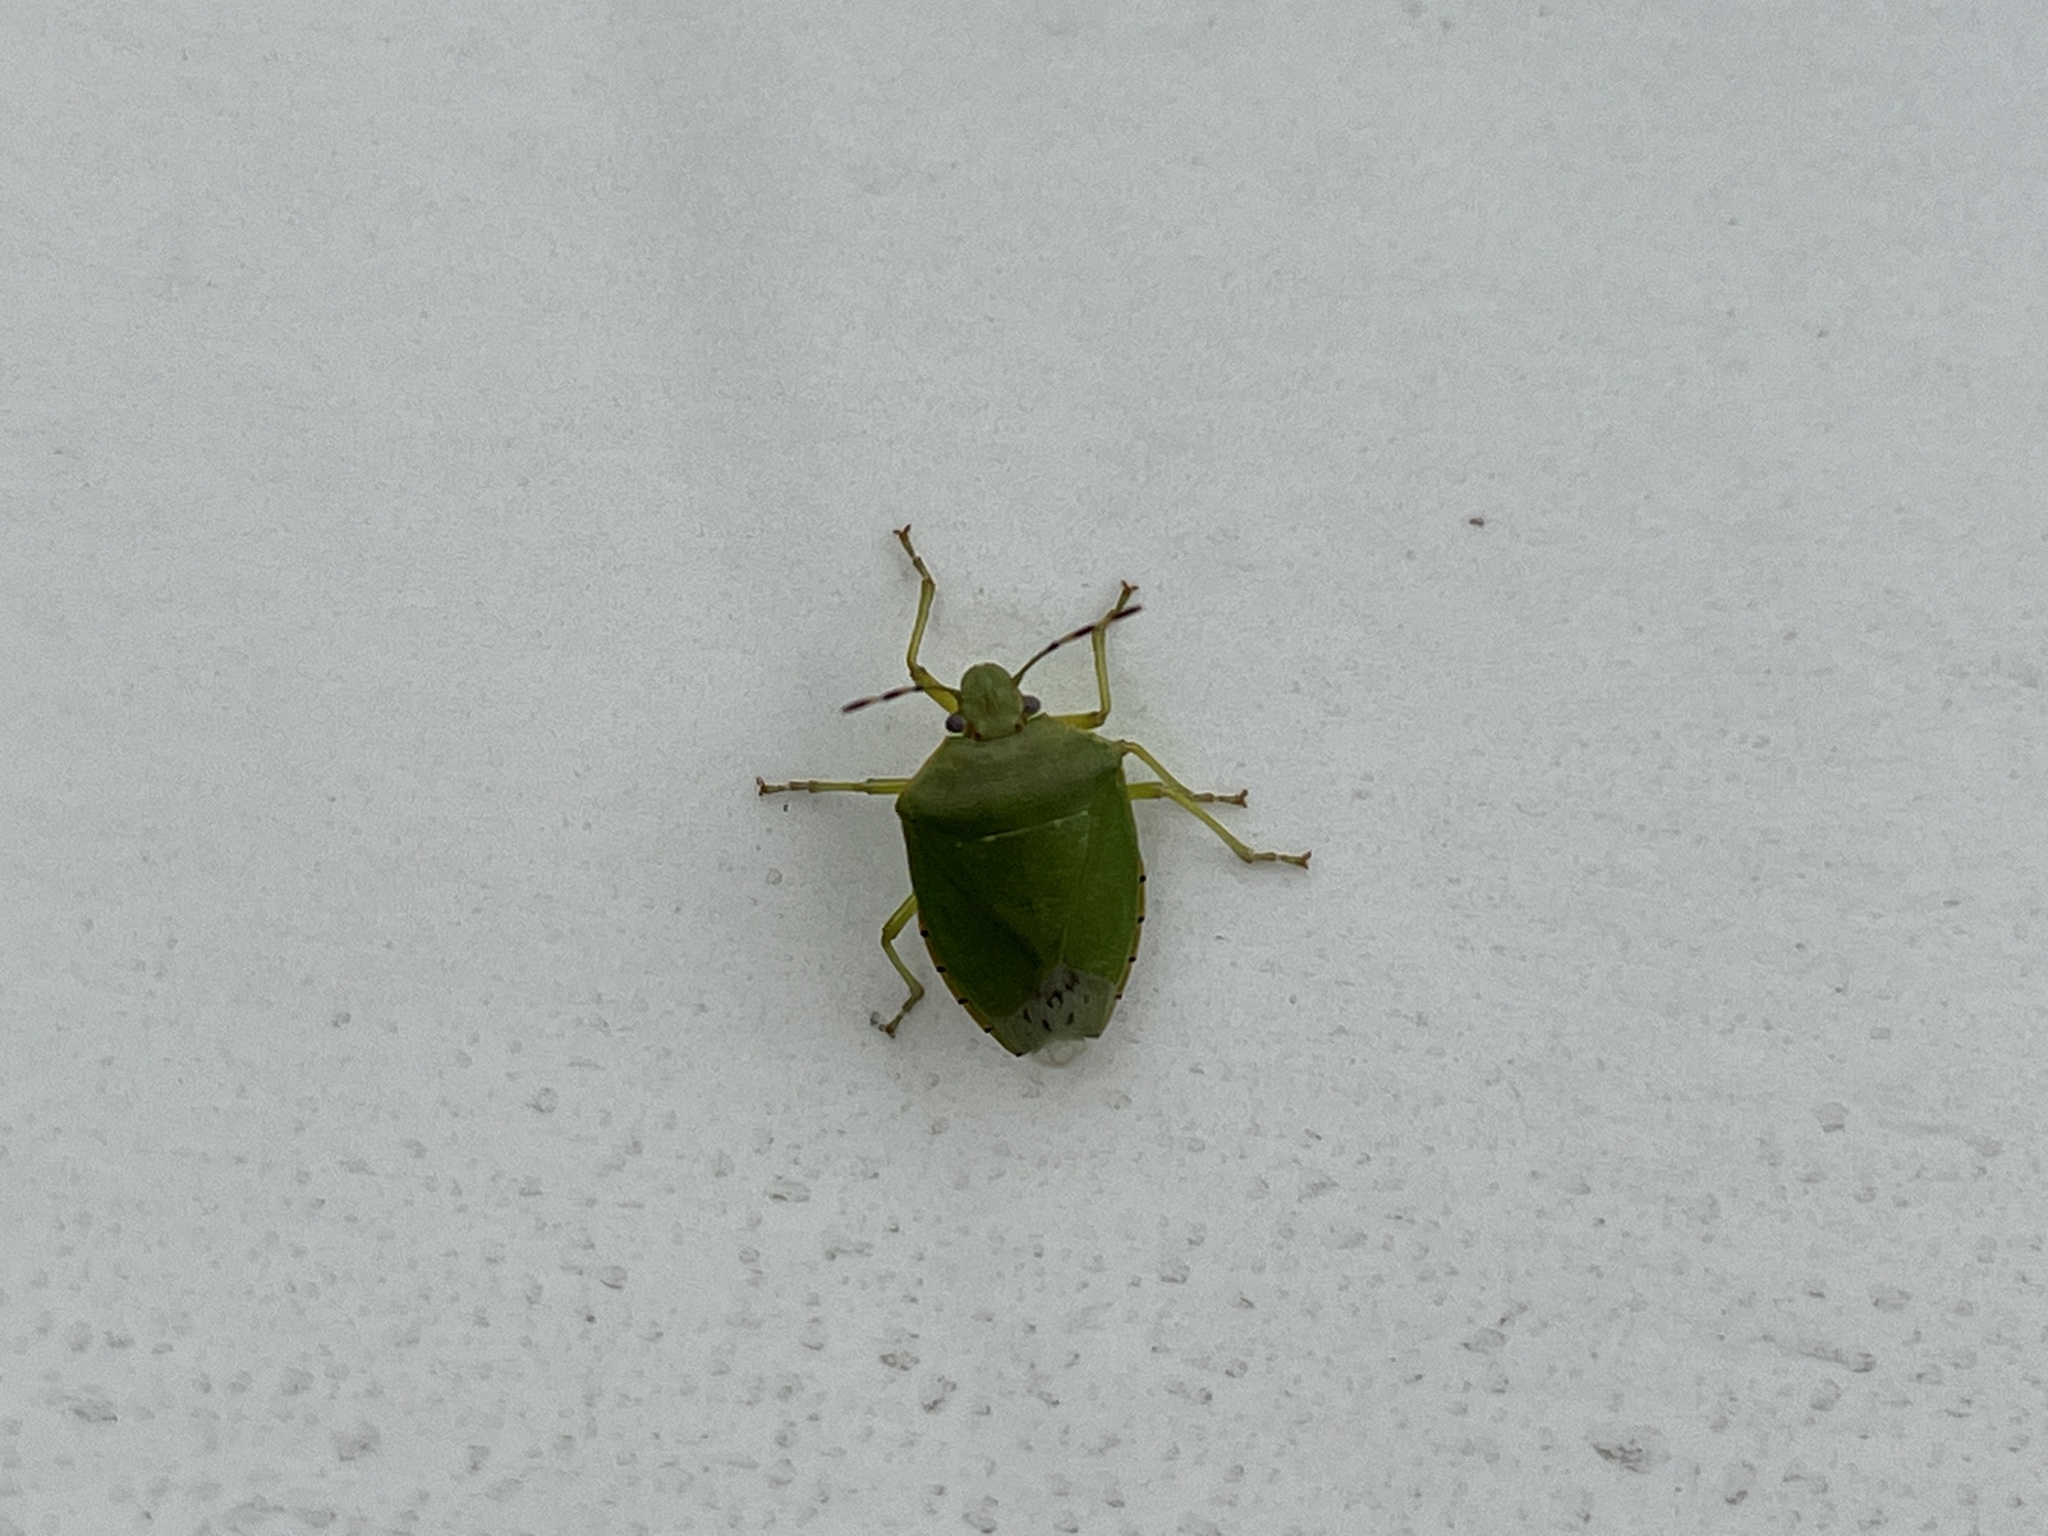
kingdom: Animalia
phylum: Arthropoda
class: Insecta
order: Hemiptera
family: Pentatomidae
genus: Chinavia
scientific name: Chinavia hilaris
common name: Green stink bug
